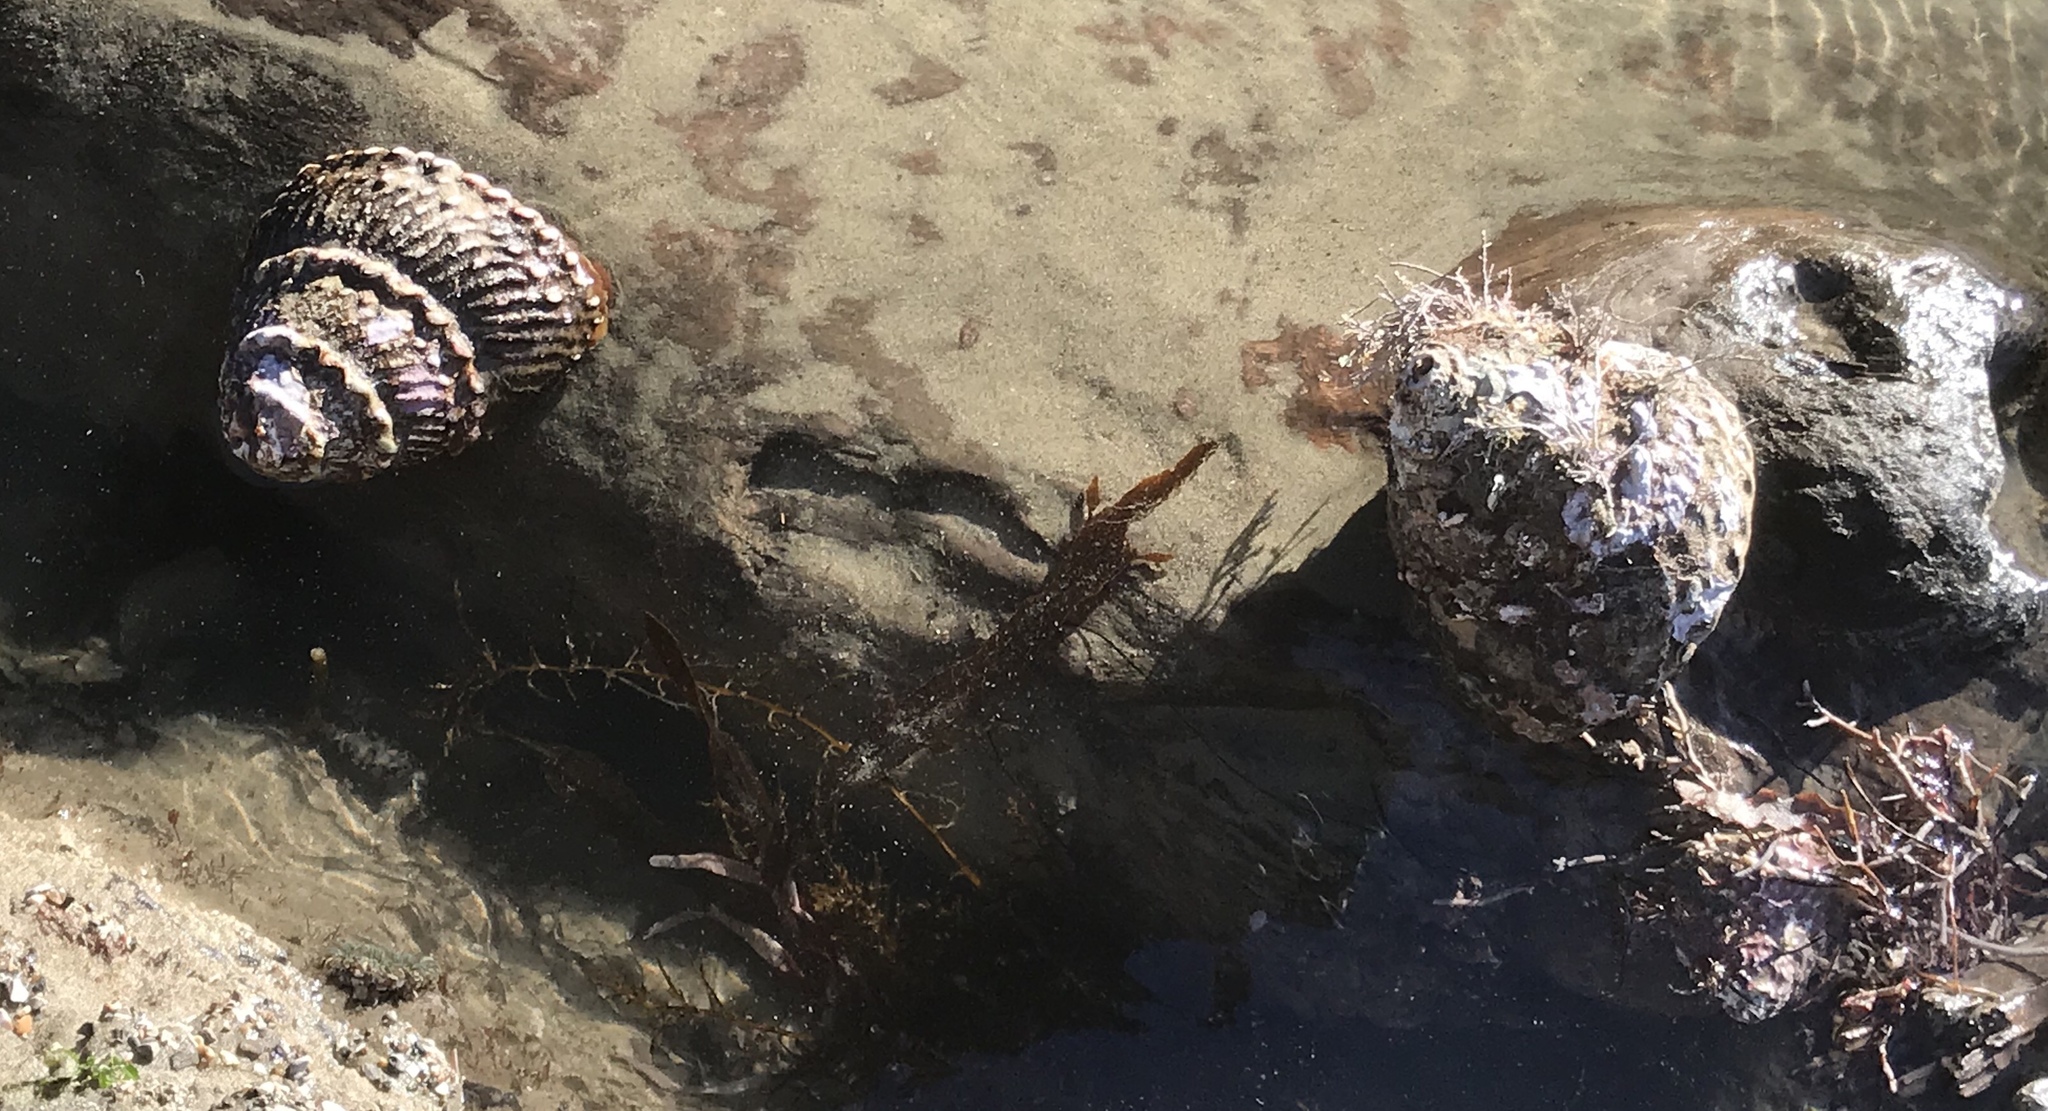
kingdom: Animalia
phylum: Mollusca
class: Gastropoda
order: Trochida
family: Turbinidae
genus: Megastraea
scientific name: Megastraea undosa
